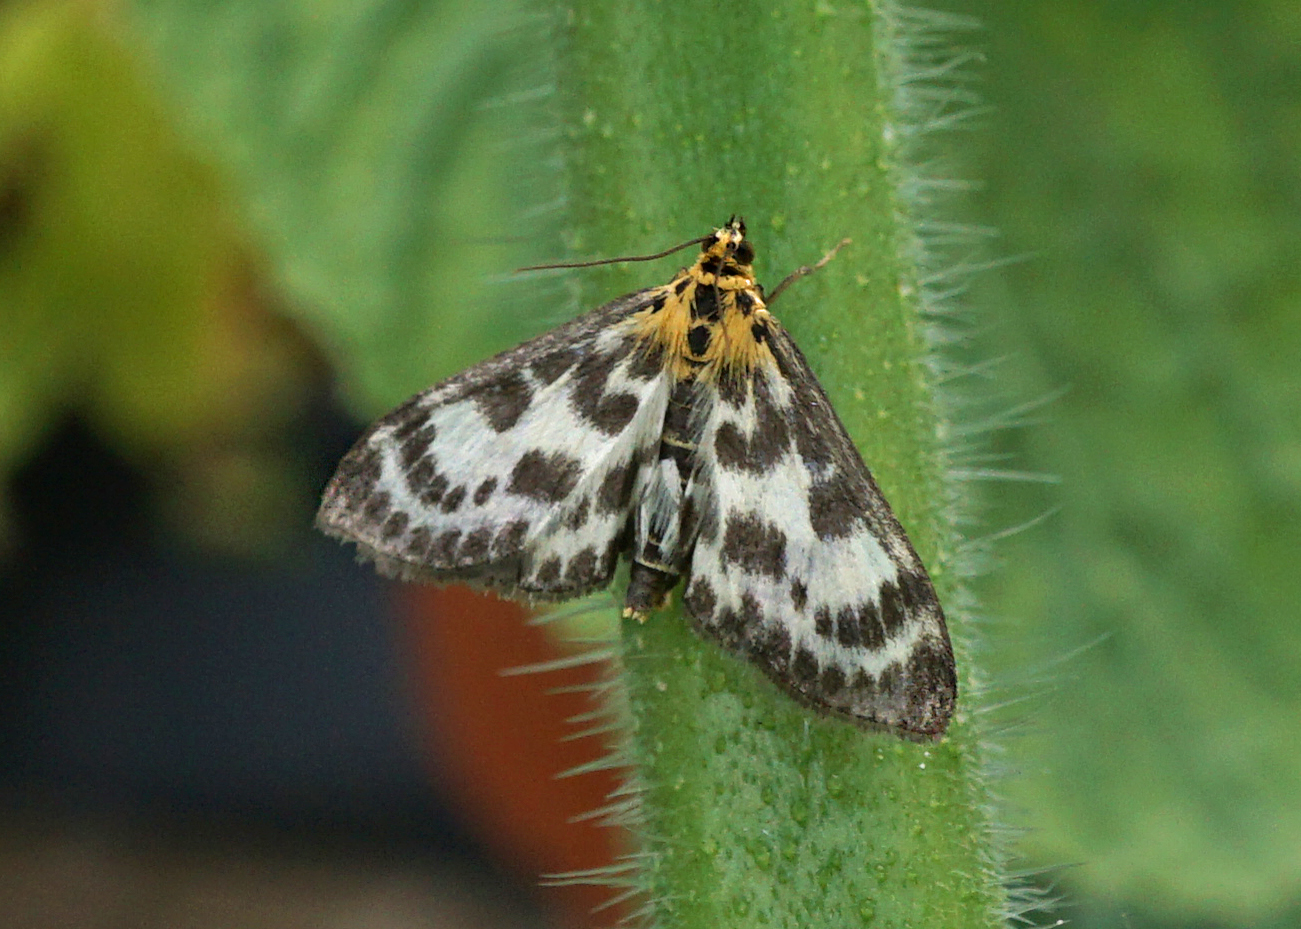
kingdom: Animalia
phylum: Arthropoda
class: Insecta
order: Lepidoptera
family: Crambidae
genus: Anania
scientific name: Anania hortulata
